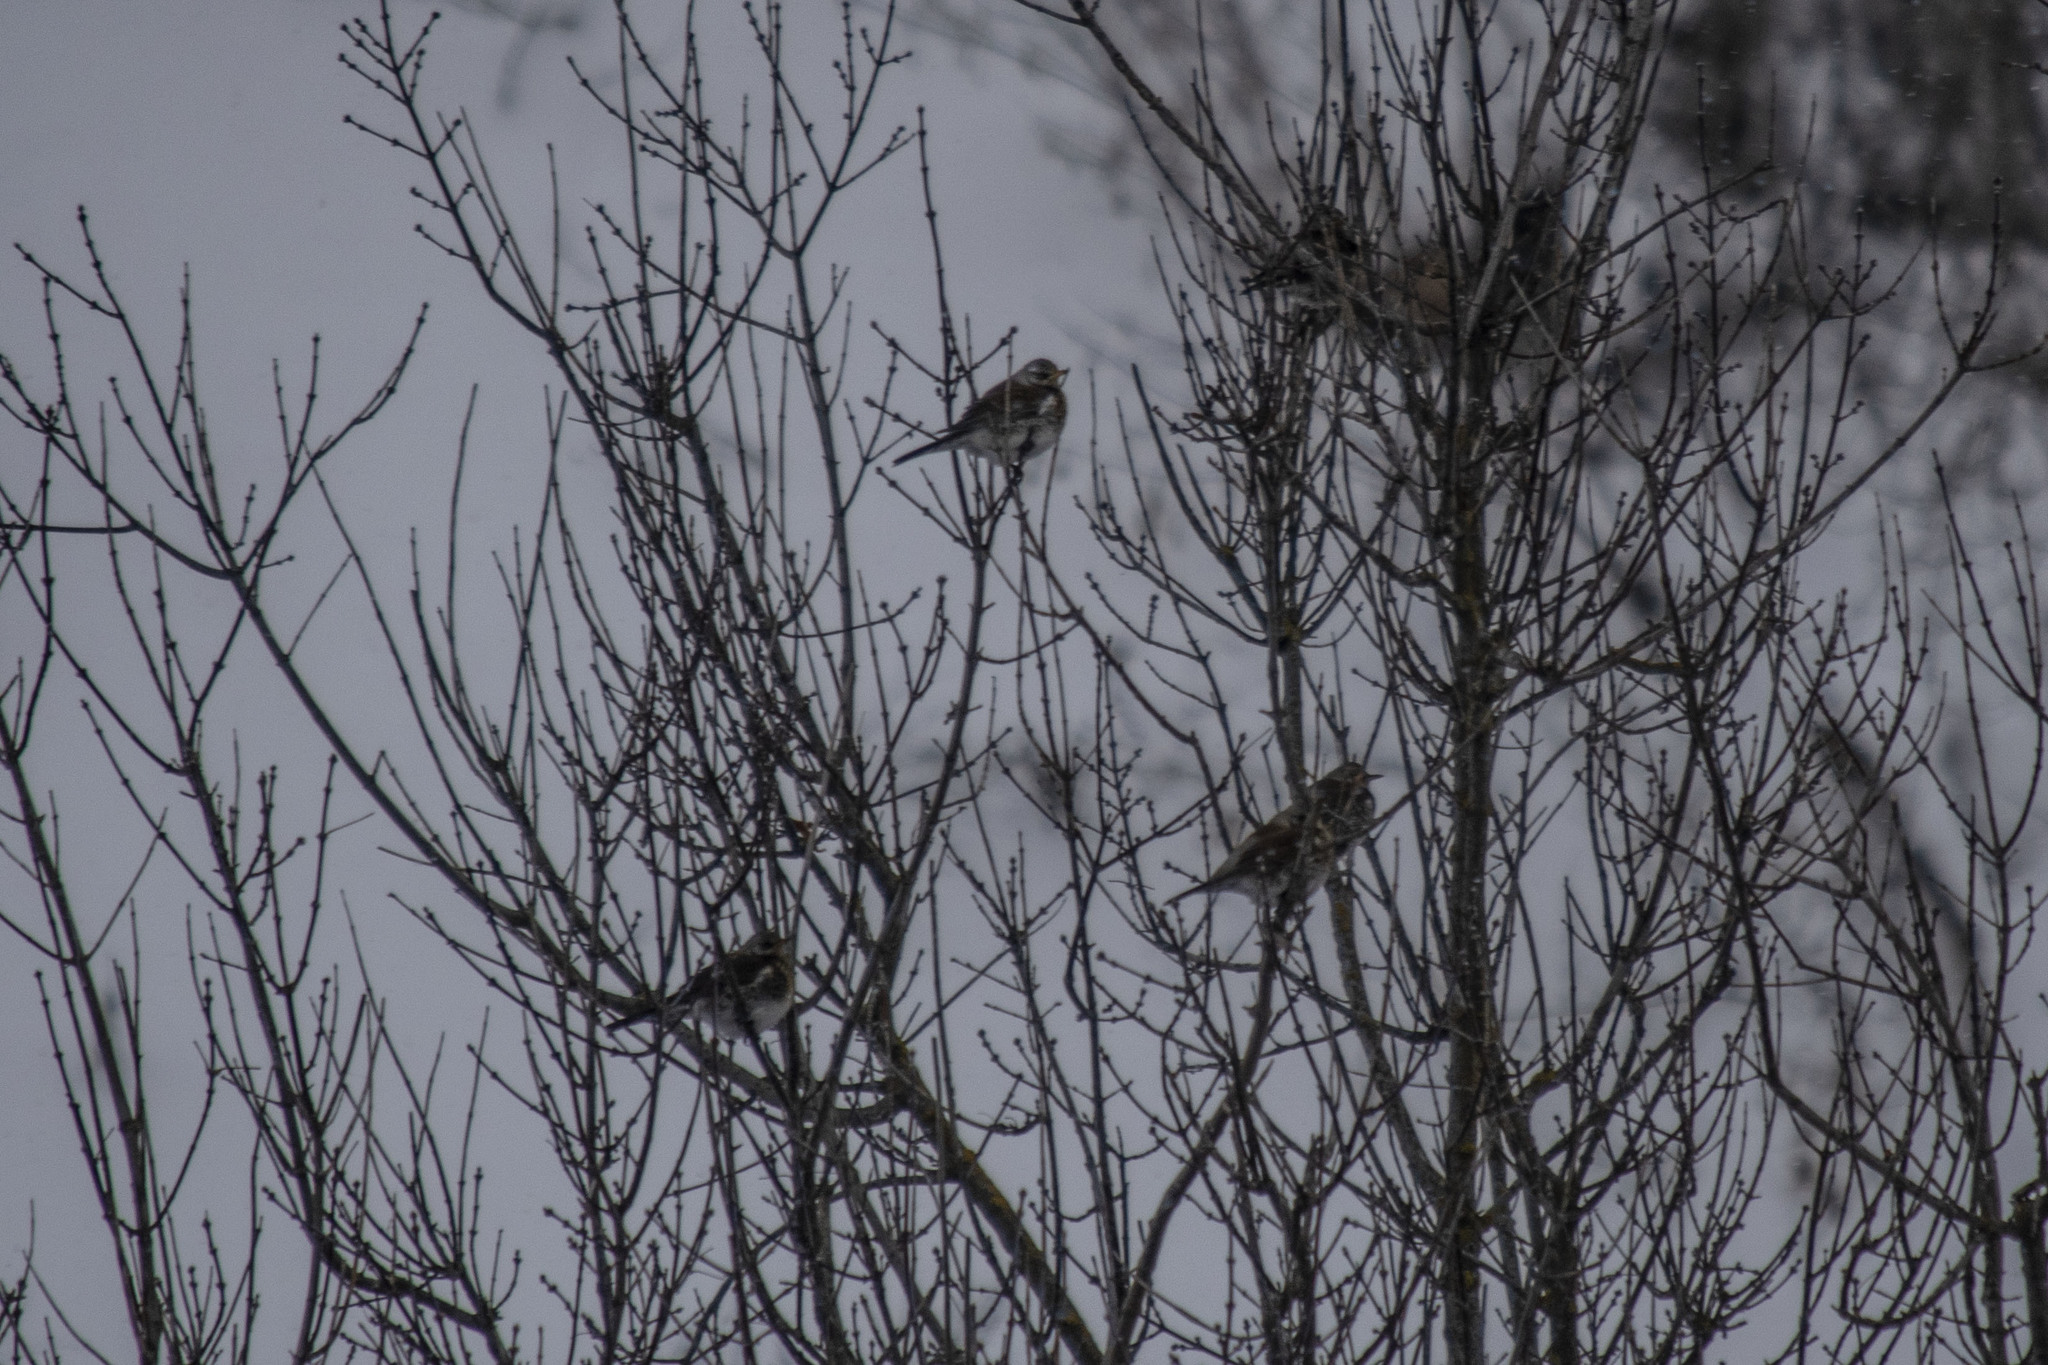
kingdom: Animalia
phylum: Chordata
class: Aves
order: Passeriformes
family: Turdidae
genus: Turdus
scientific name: Turdus pilaris
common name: Fieldfare
